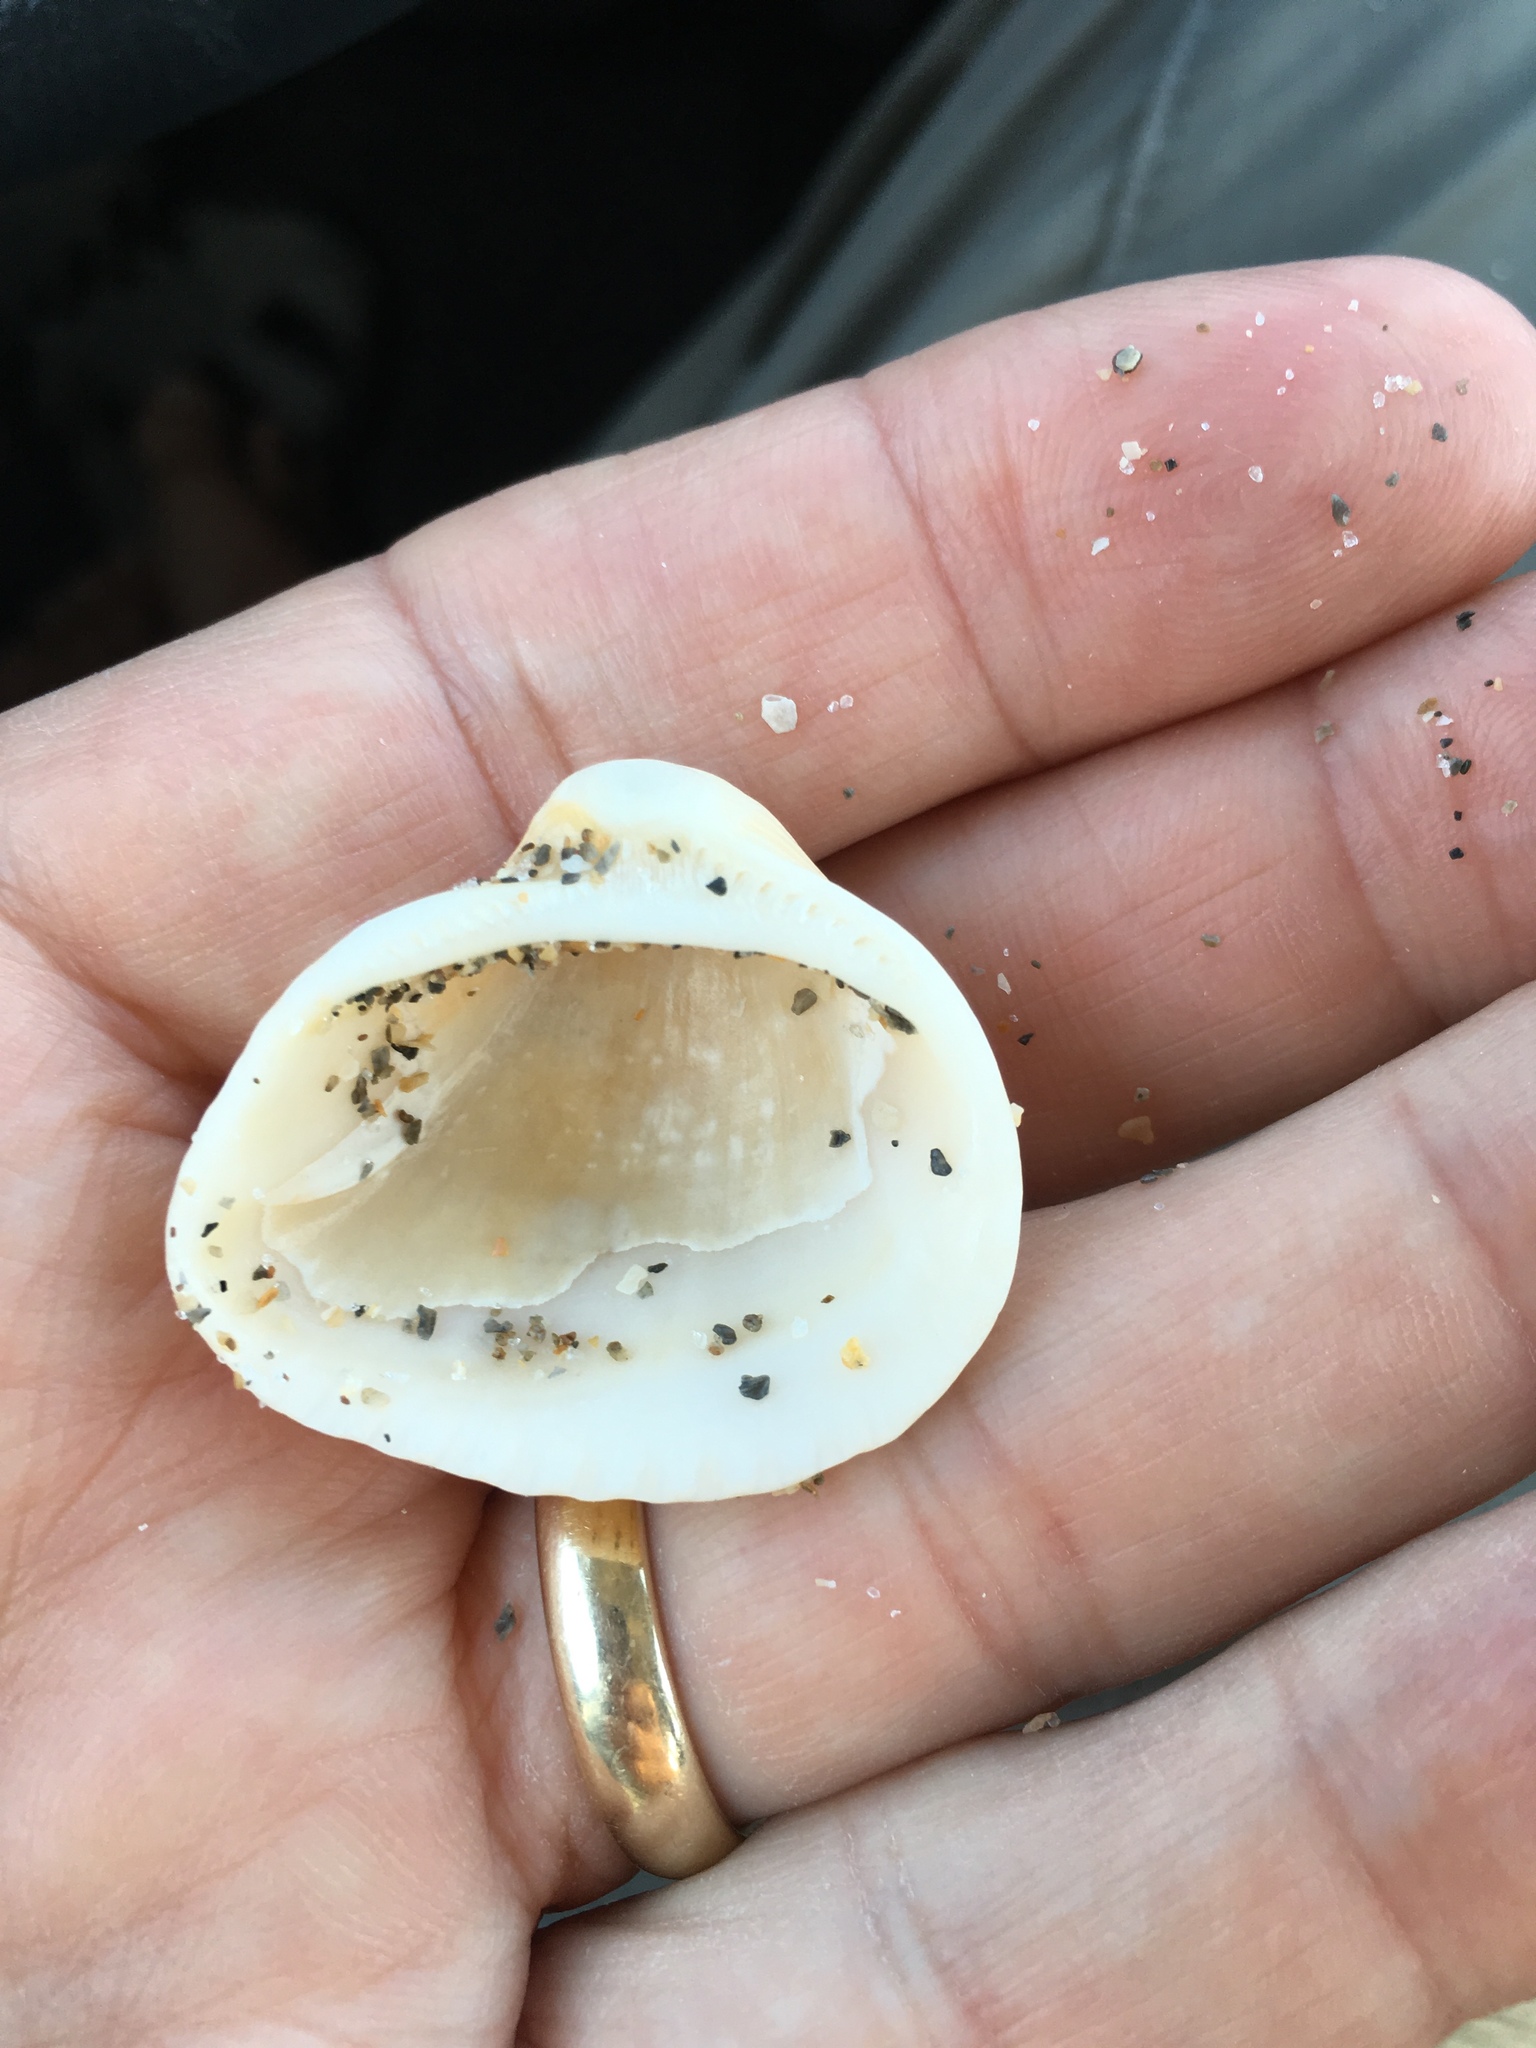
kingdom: Animalia
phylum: Mollusca
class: Bivalvia
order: Arcida
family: Noetiidae
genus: Noetia
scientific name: Noetia ponderosa
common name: Ponderous ark
